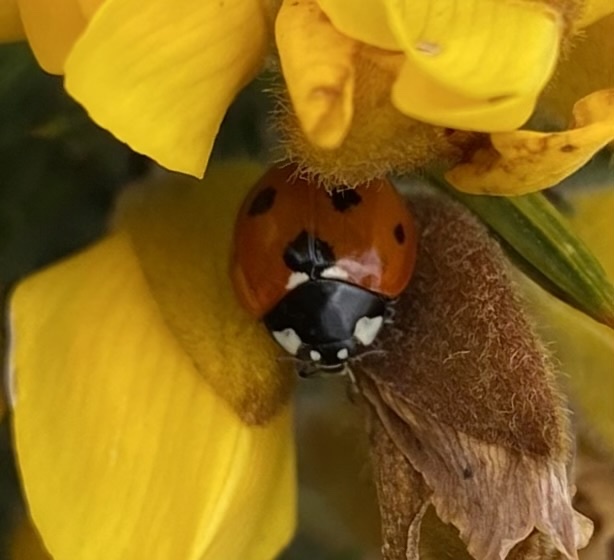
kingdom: Animalia
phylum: Arthropoda
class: Insecta
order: Coleoptera
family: Coccinellidae
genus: Coccinella
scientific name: Coccinella septempunctata
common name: Sevenspotted lady beetle
